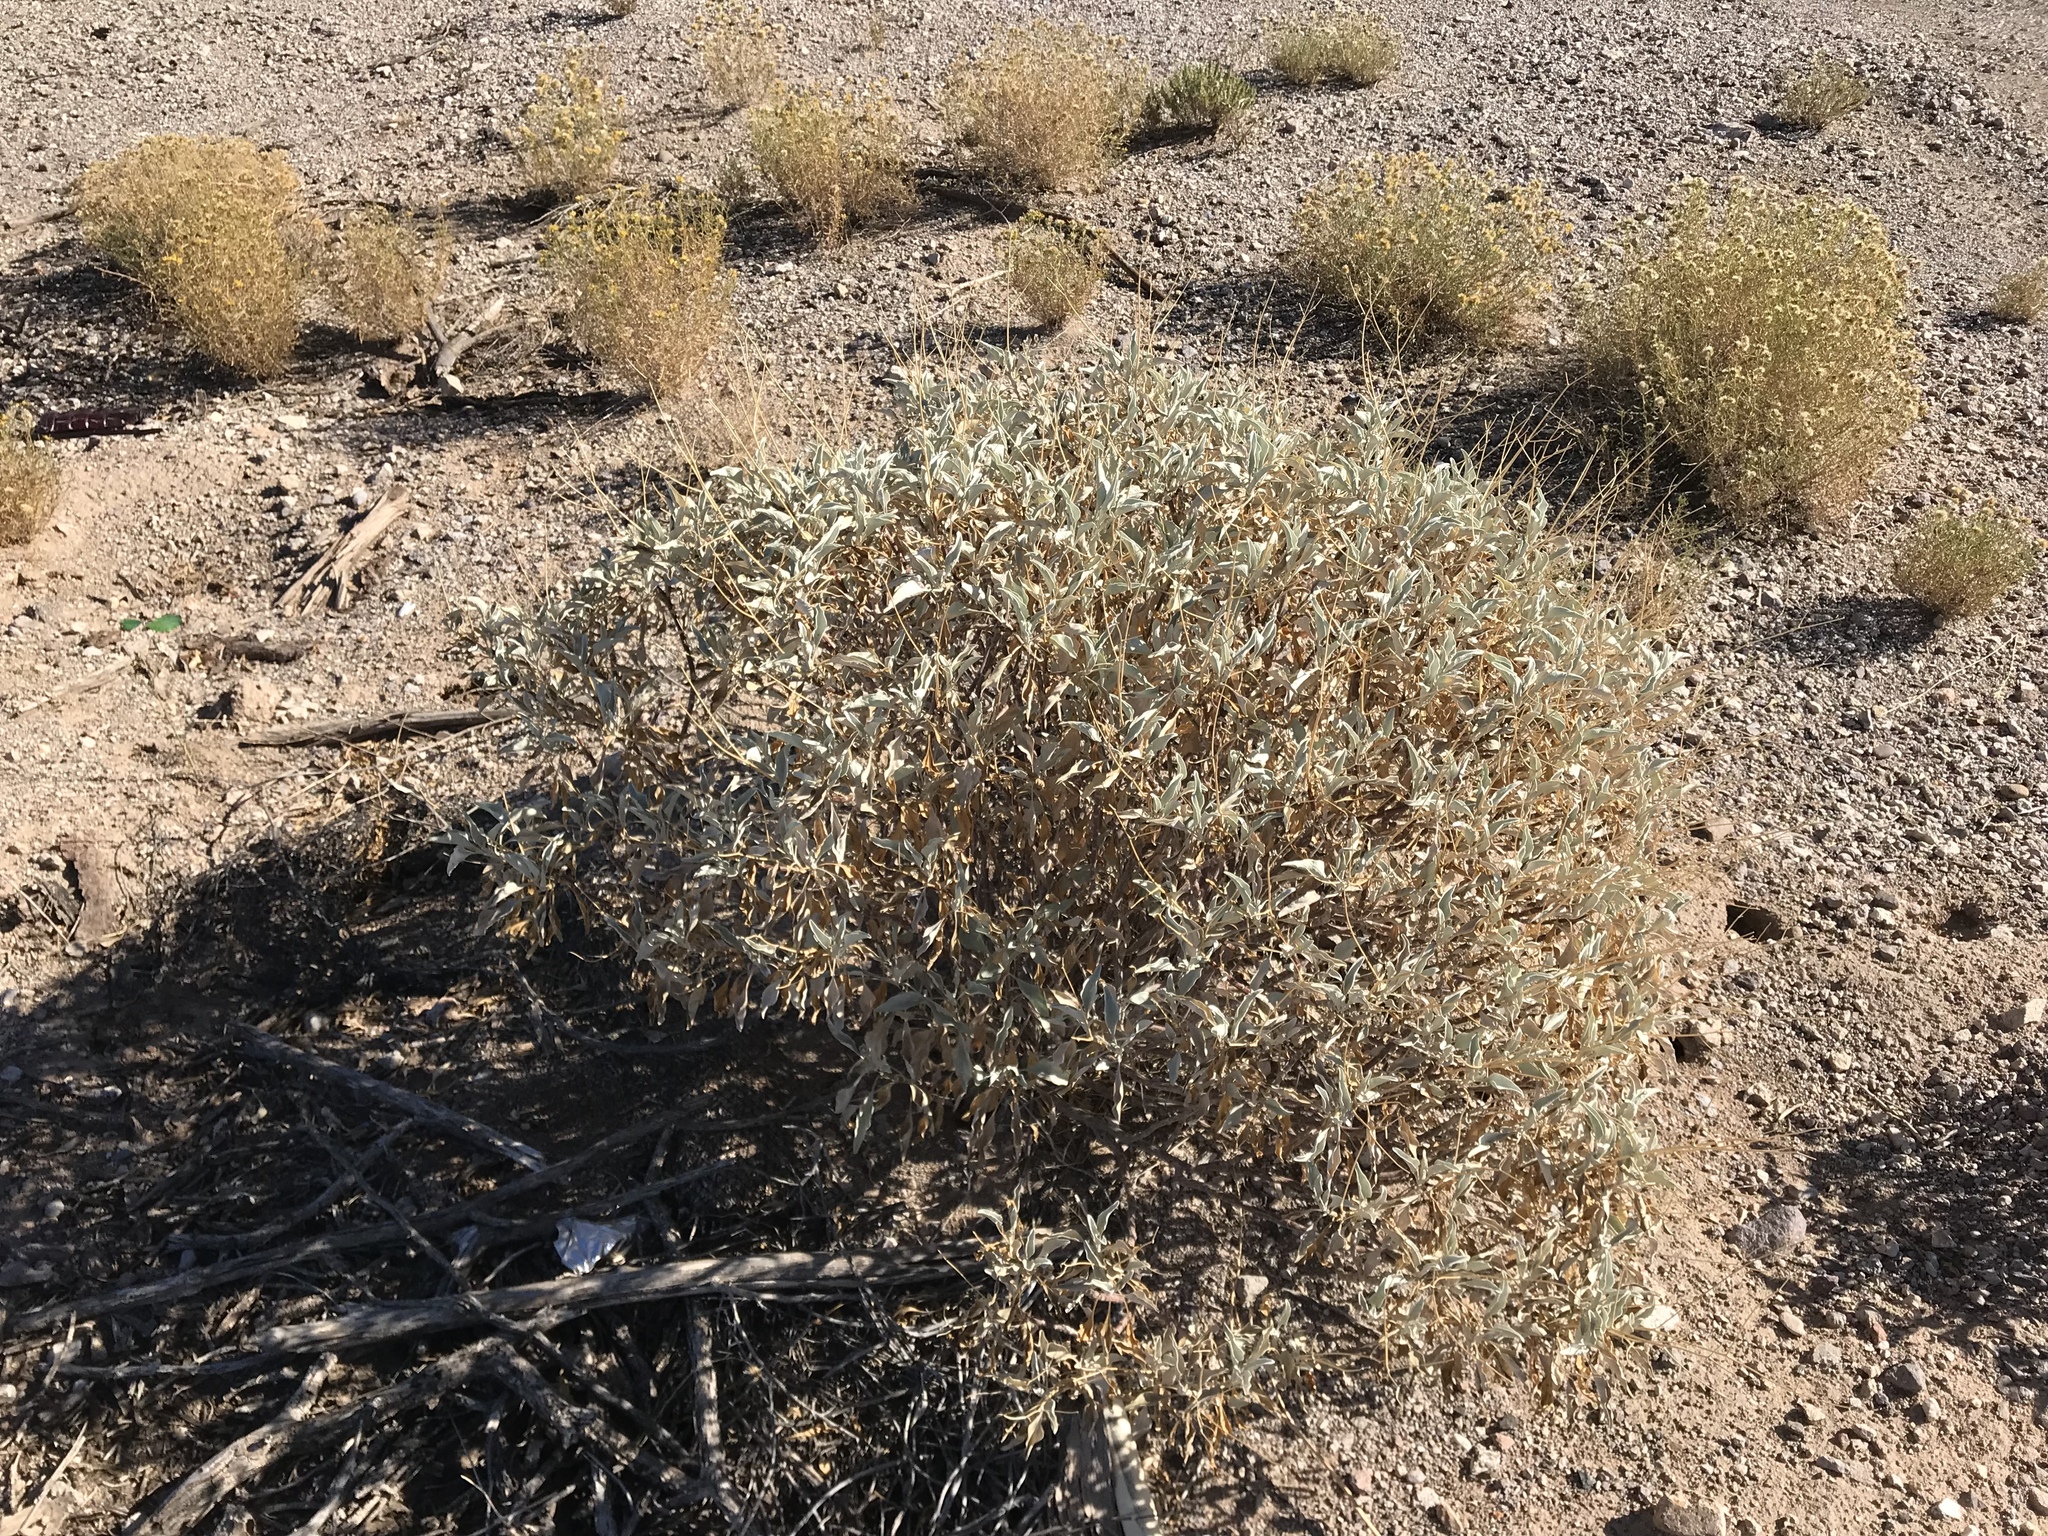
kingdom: Plantae
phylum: Tracheophyta
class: Magnoliopsida
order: Asterales
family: Asteraceae
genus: Encelia
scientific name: Encelia farinosa
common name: Brittlebush
